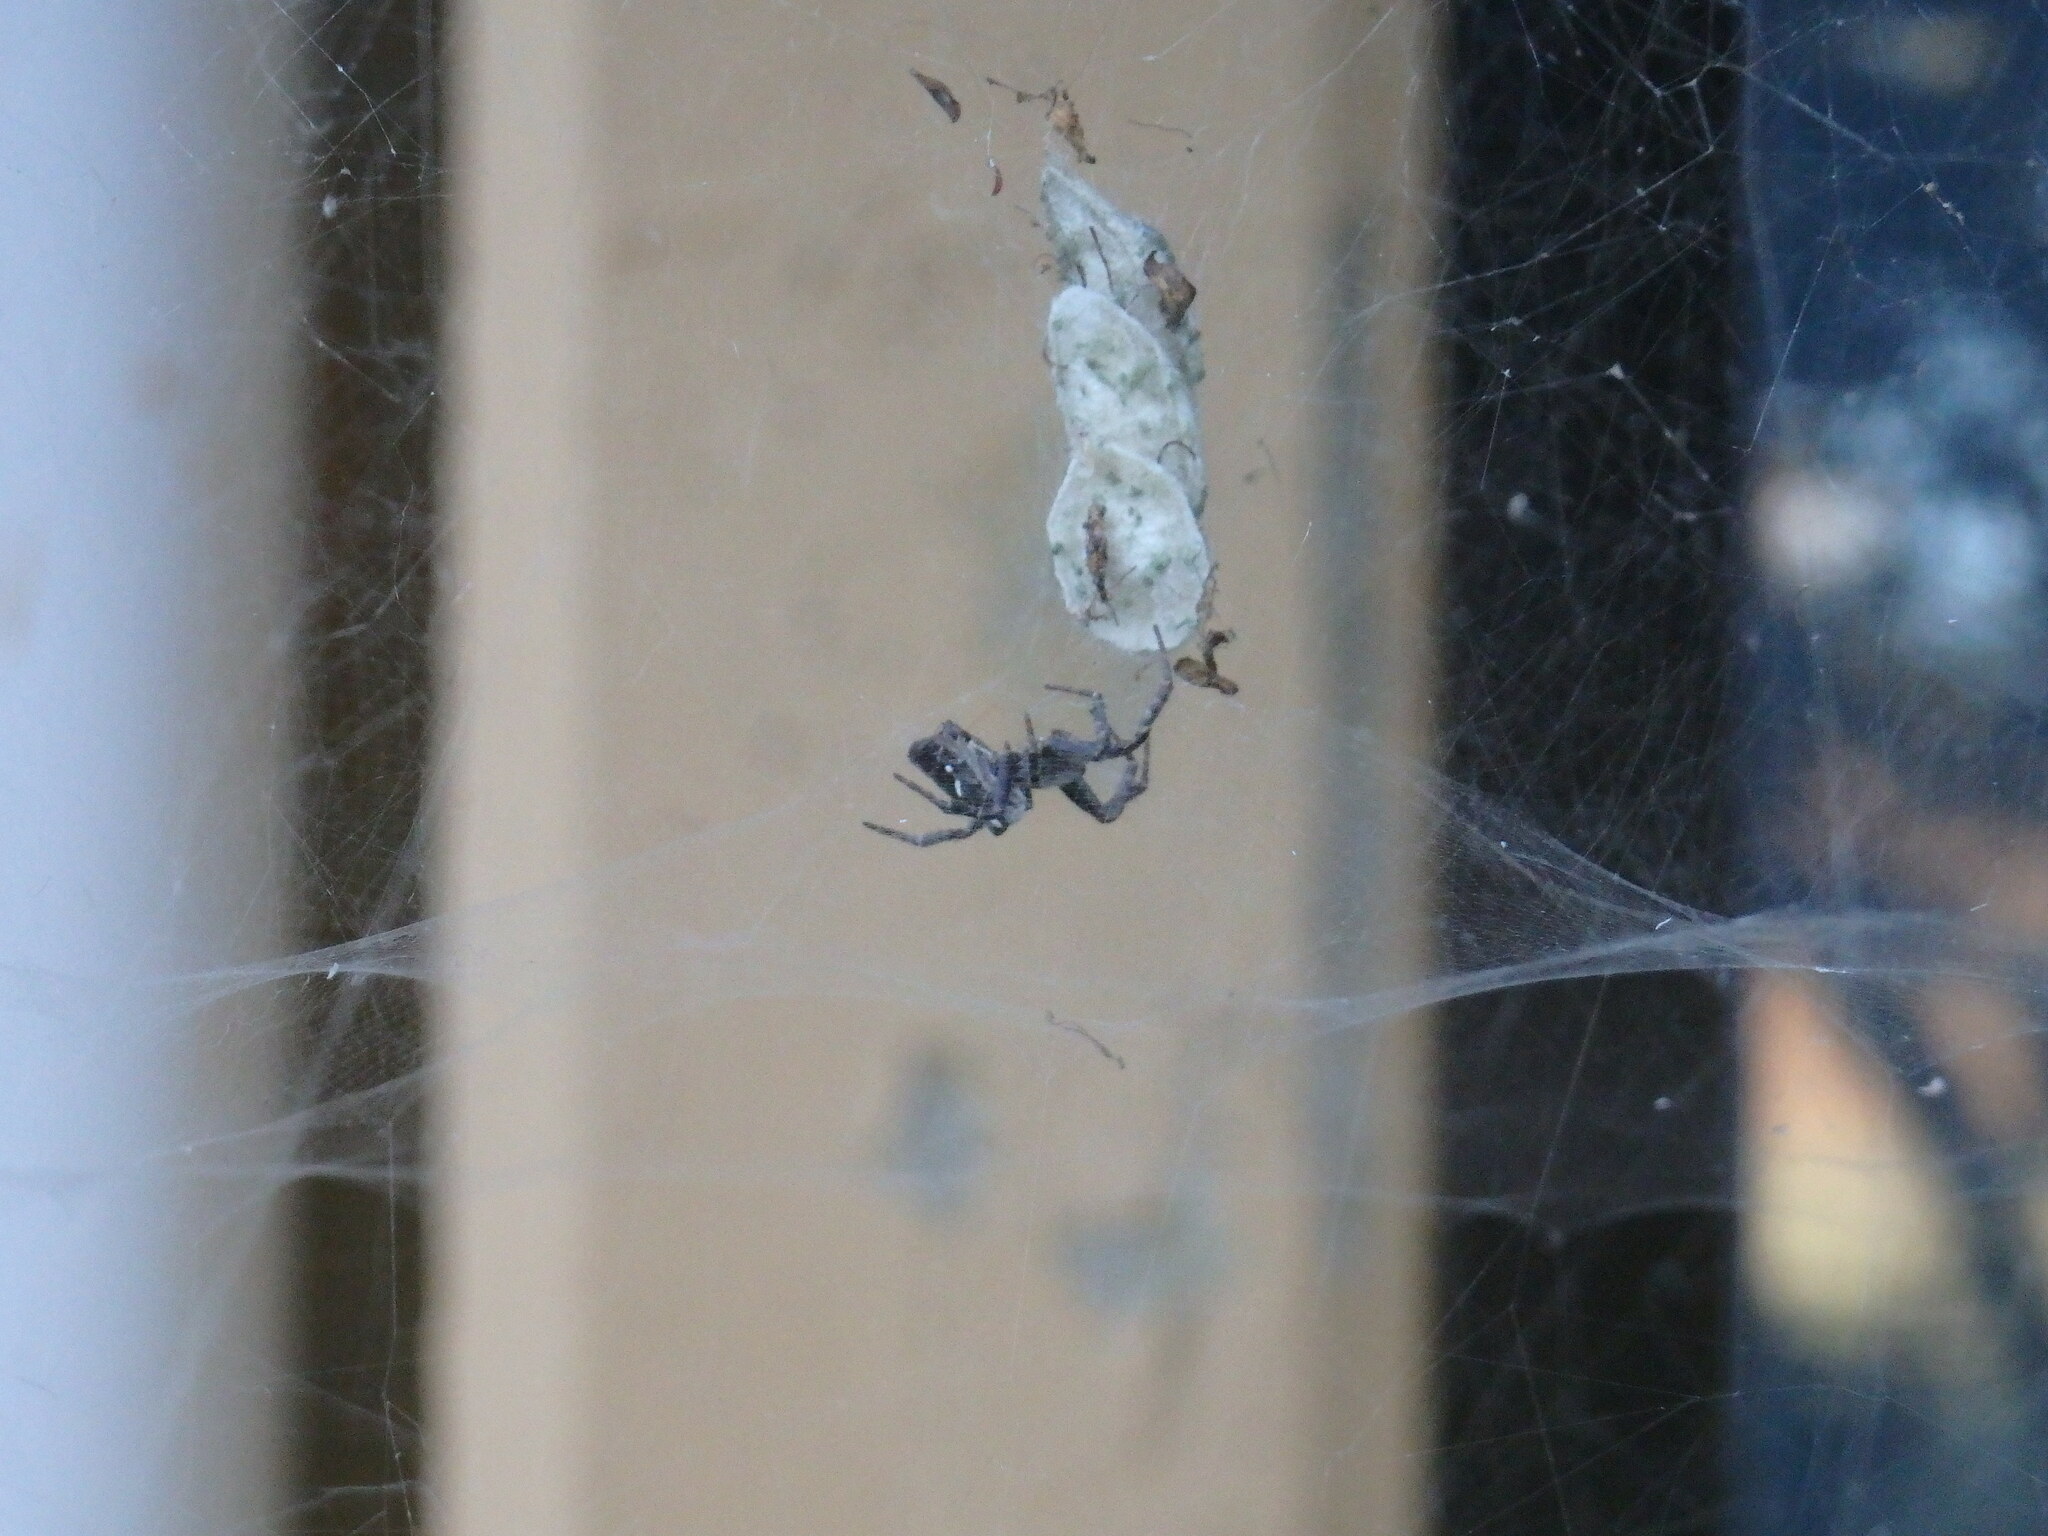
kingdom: Animalia
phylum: Arthropoda
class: Arachnida
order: Araneae
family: Araneidae
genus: Cyrtophora
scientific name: Cyrtophora citricola
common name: Orb weavers
